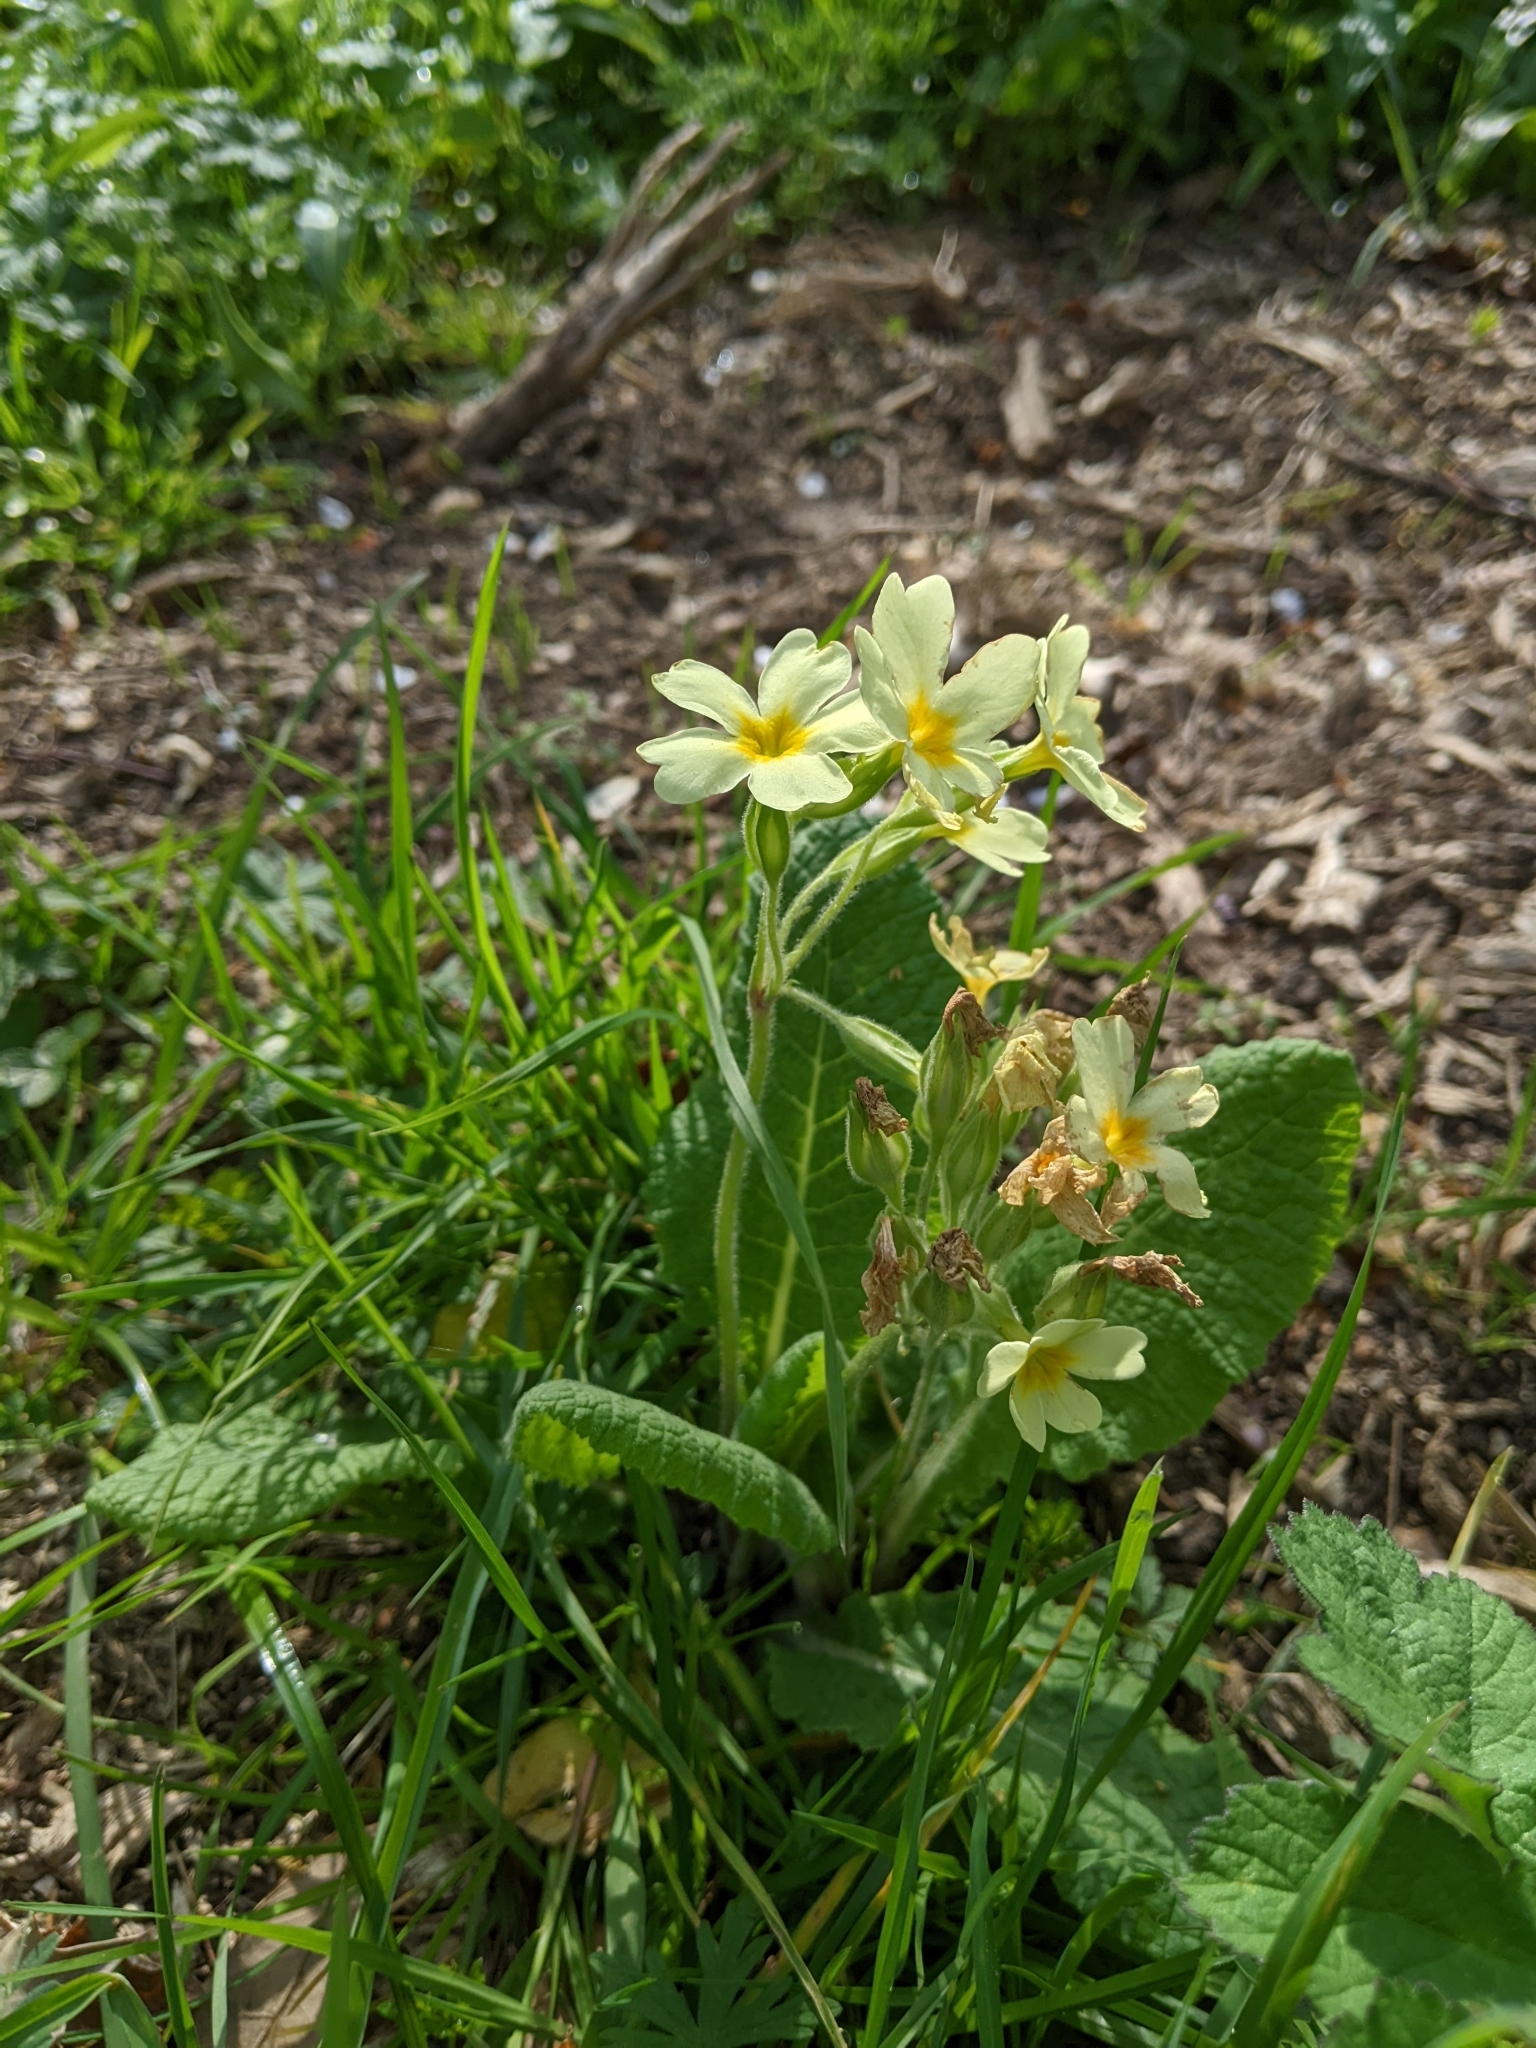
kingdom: Plantae
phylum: Tracheophyta
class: Magnoliopsida
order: Ericales
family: Primulaceae
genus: Primula
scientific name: Primula vulgaris
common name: Primrose
